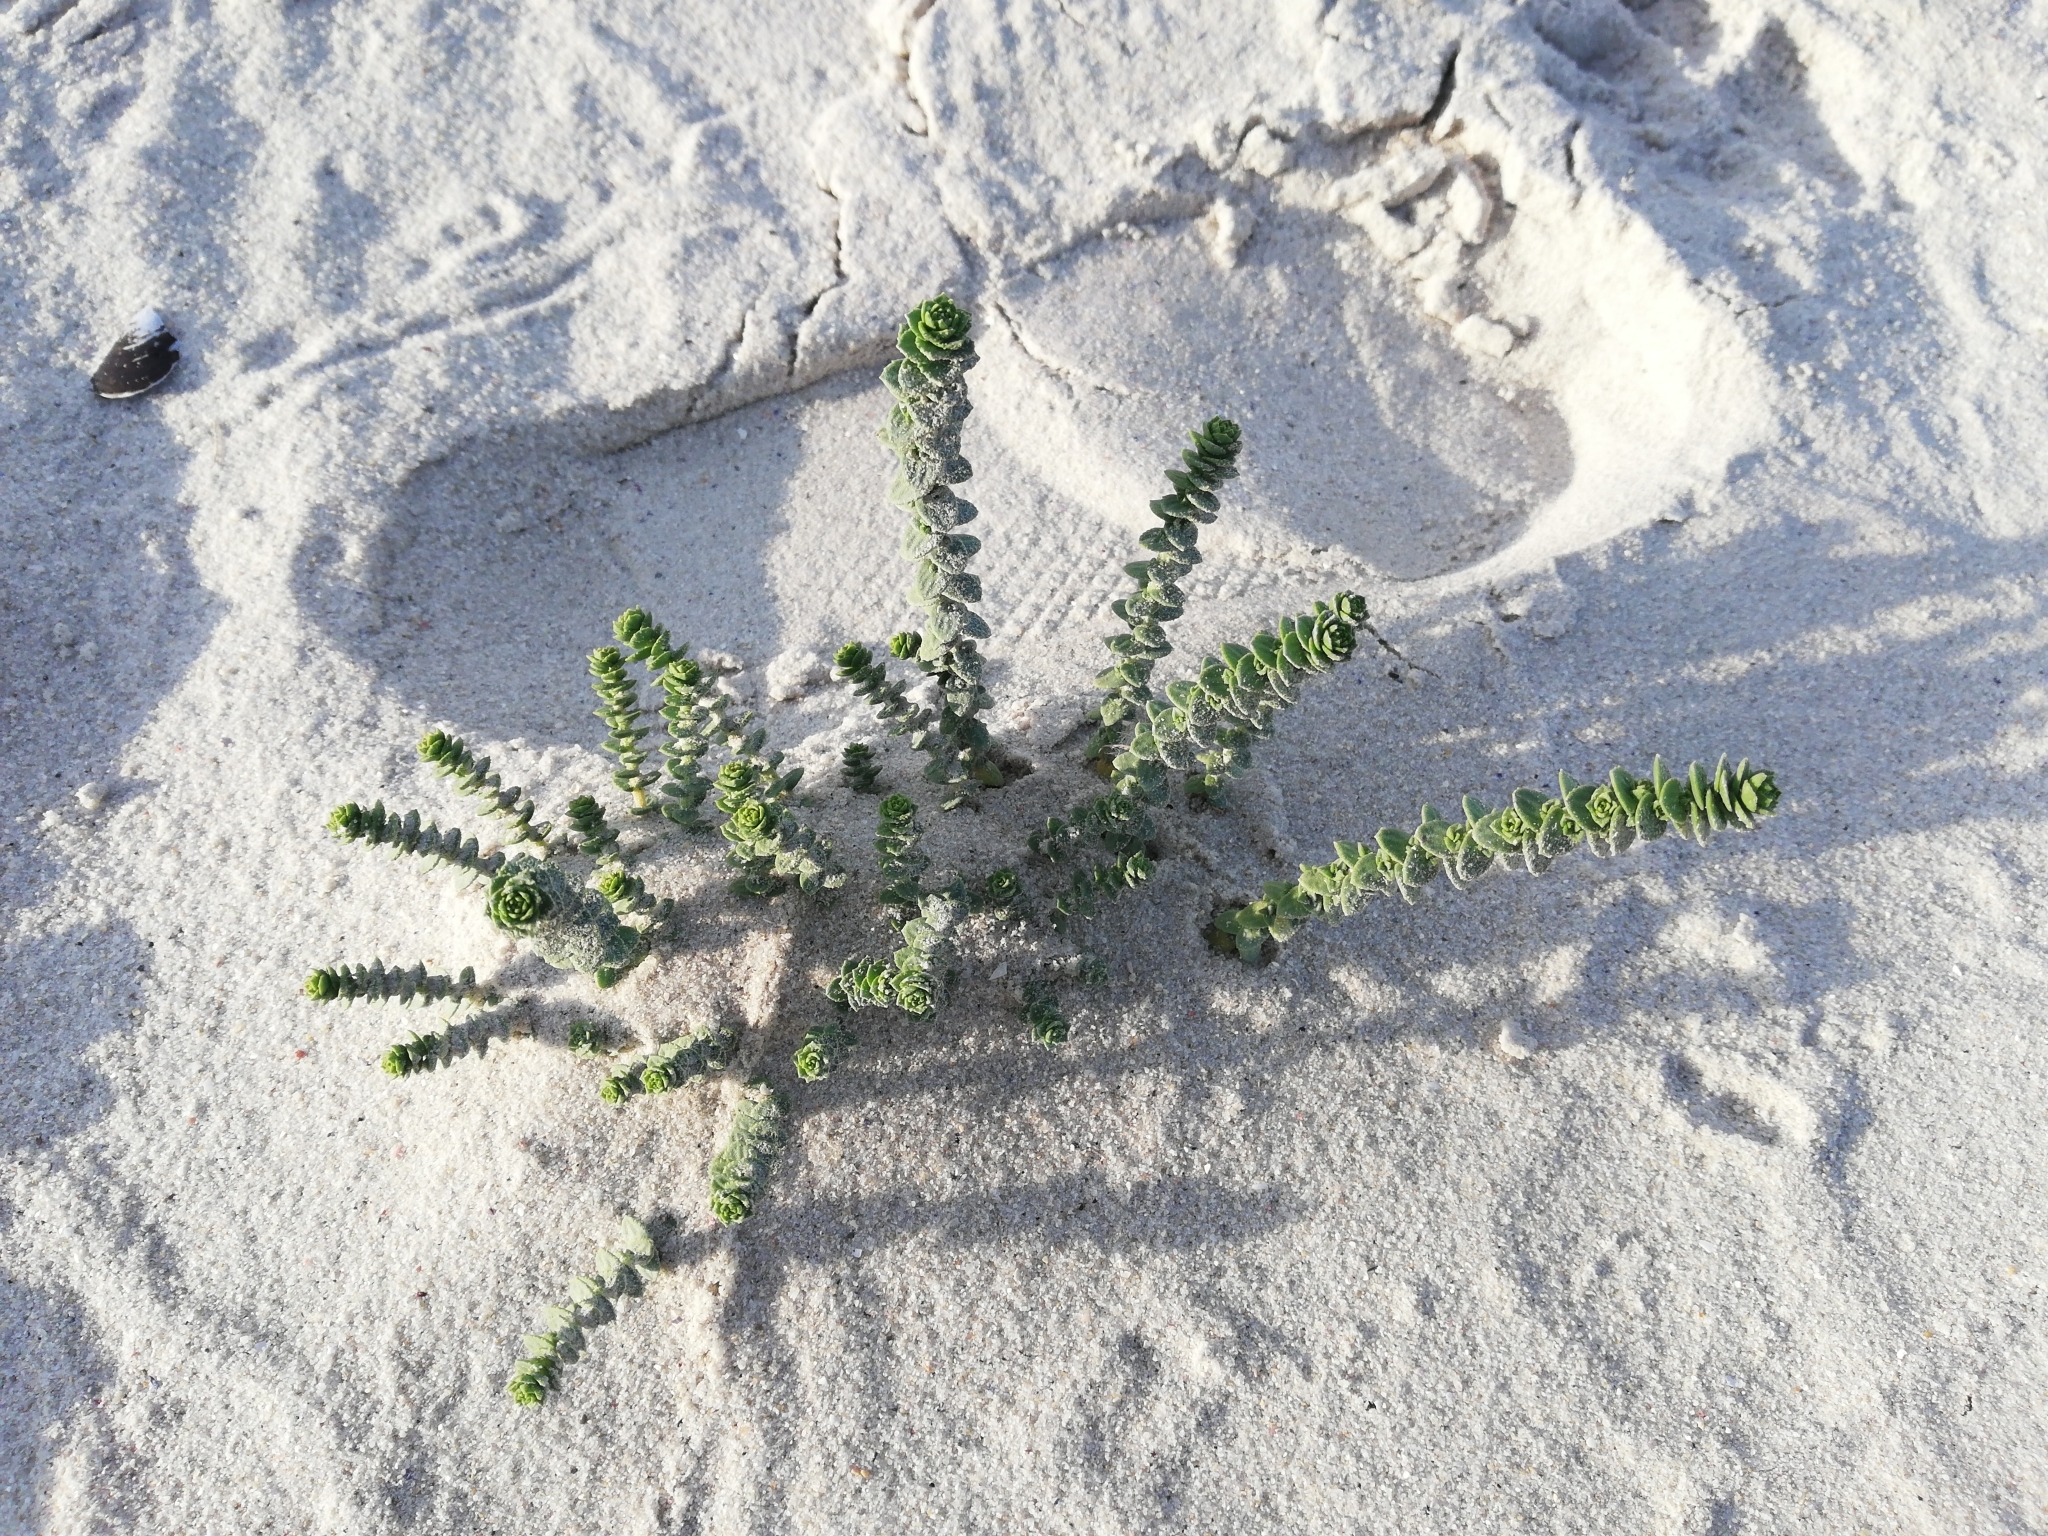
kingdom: Plantae
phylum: Tracheophyta
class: Magnoliopsida
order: Lamiales
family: Scrophulariaceae
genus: Hebenstretia
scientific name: Hebenstretia cordata
